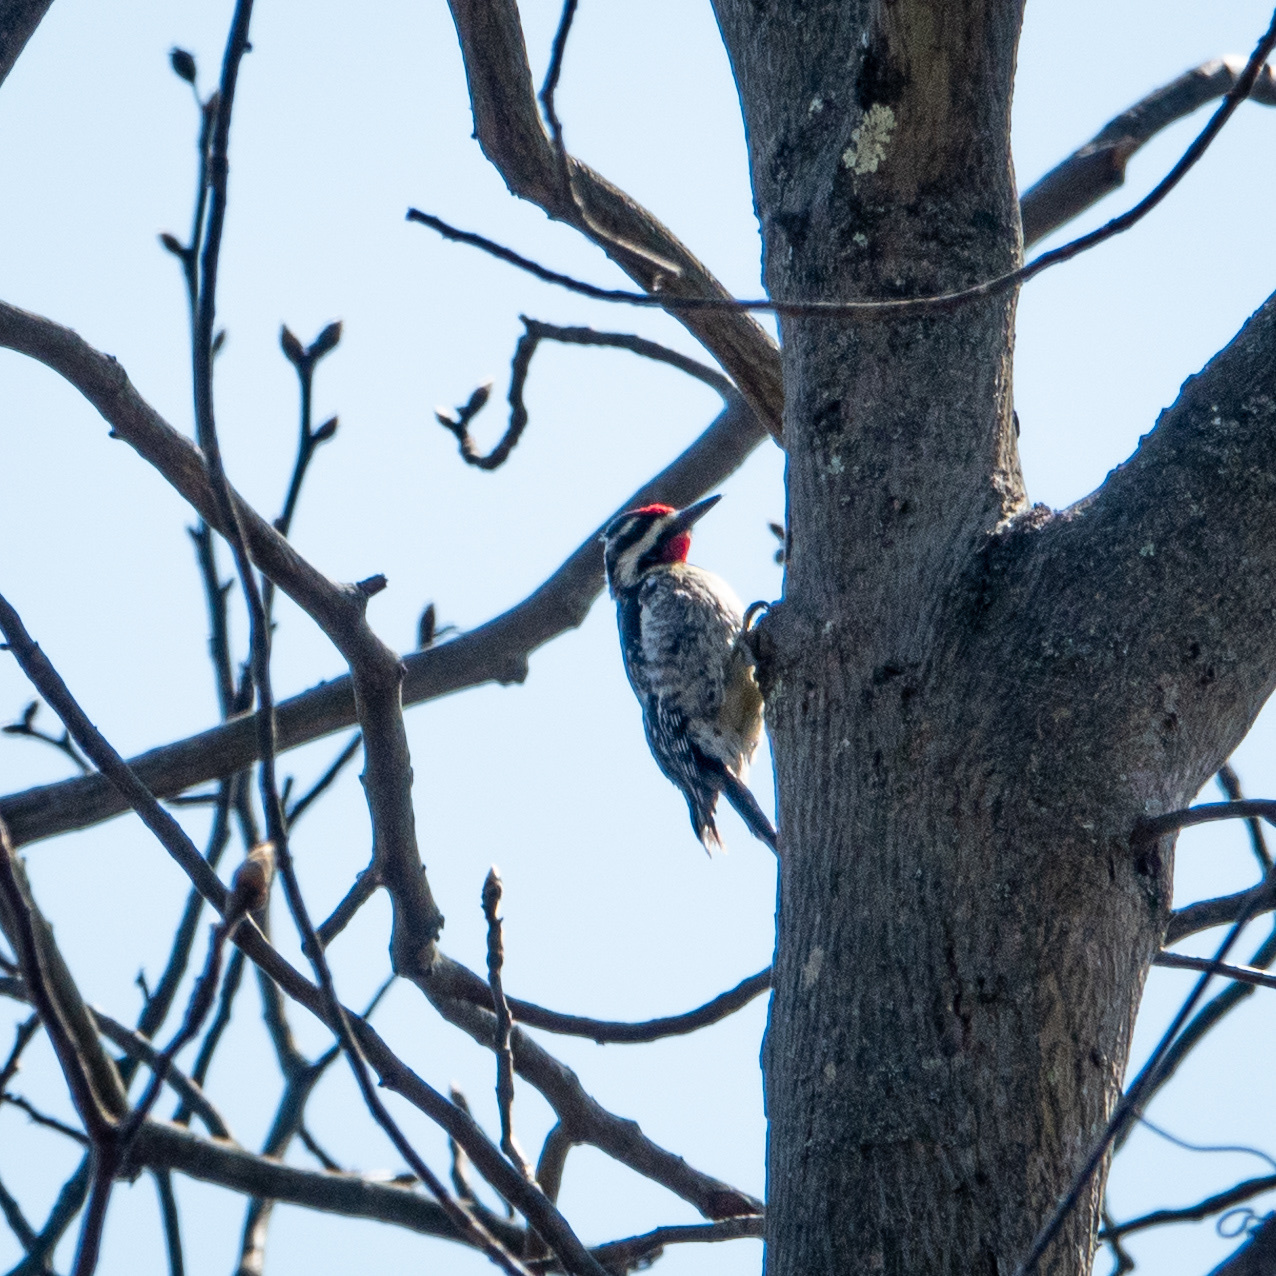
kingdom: Animalia
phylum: Chordata
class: Aves
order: Piciformes
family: Picidae
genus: Sphyrapicus
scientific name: Sphyrapicus varius
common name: Yellow-bellied sapsucker
